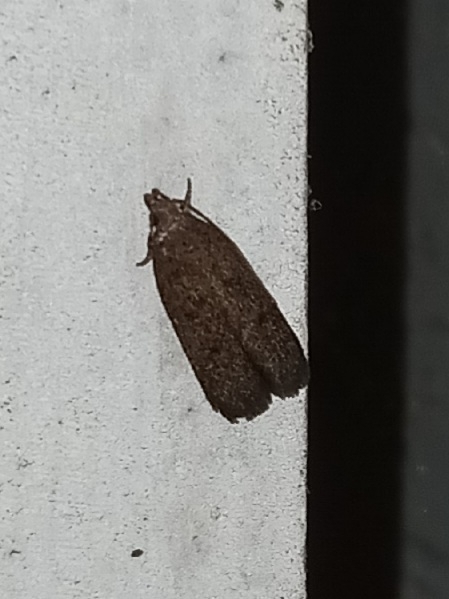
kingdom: Animalia
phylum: Arthropoda
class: Insecta
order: Lepidoptera
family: Autostichidae
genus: Glyphidocera
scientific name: Glyphidocera juniperella
